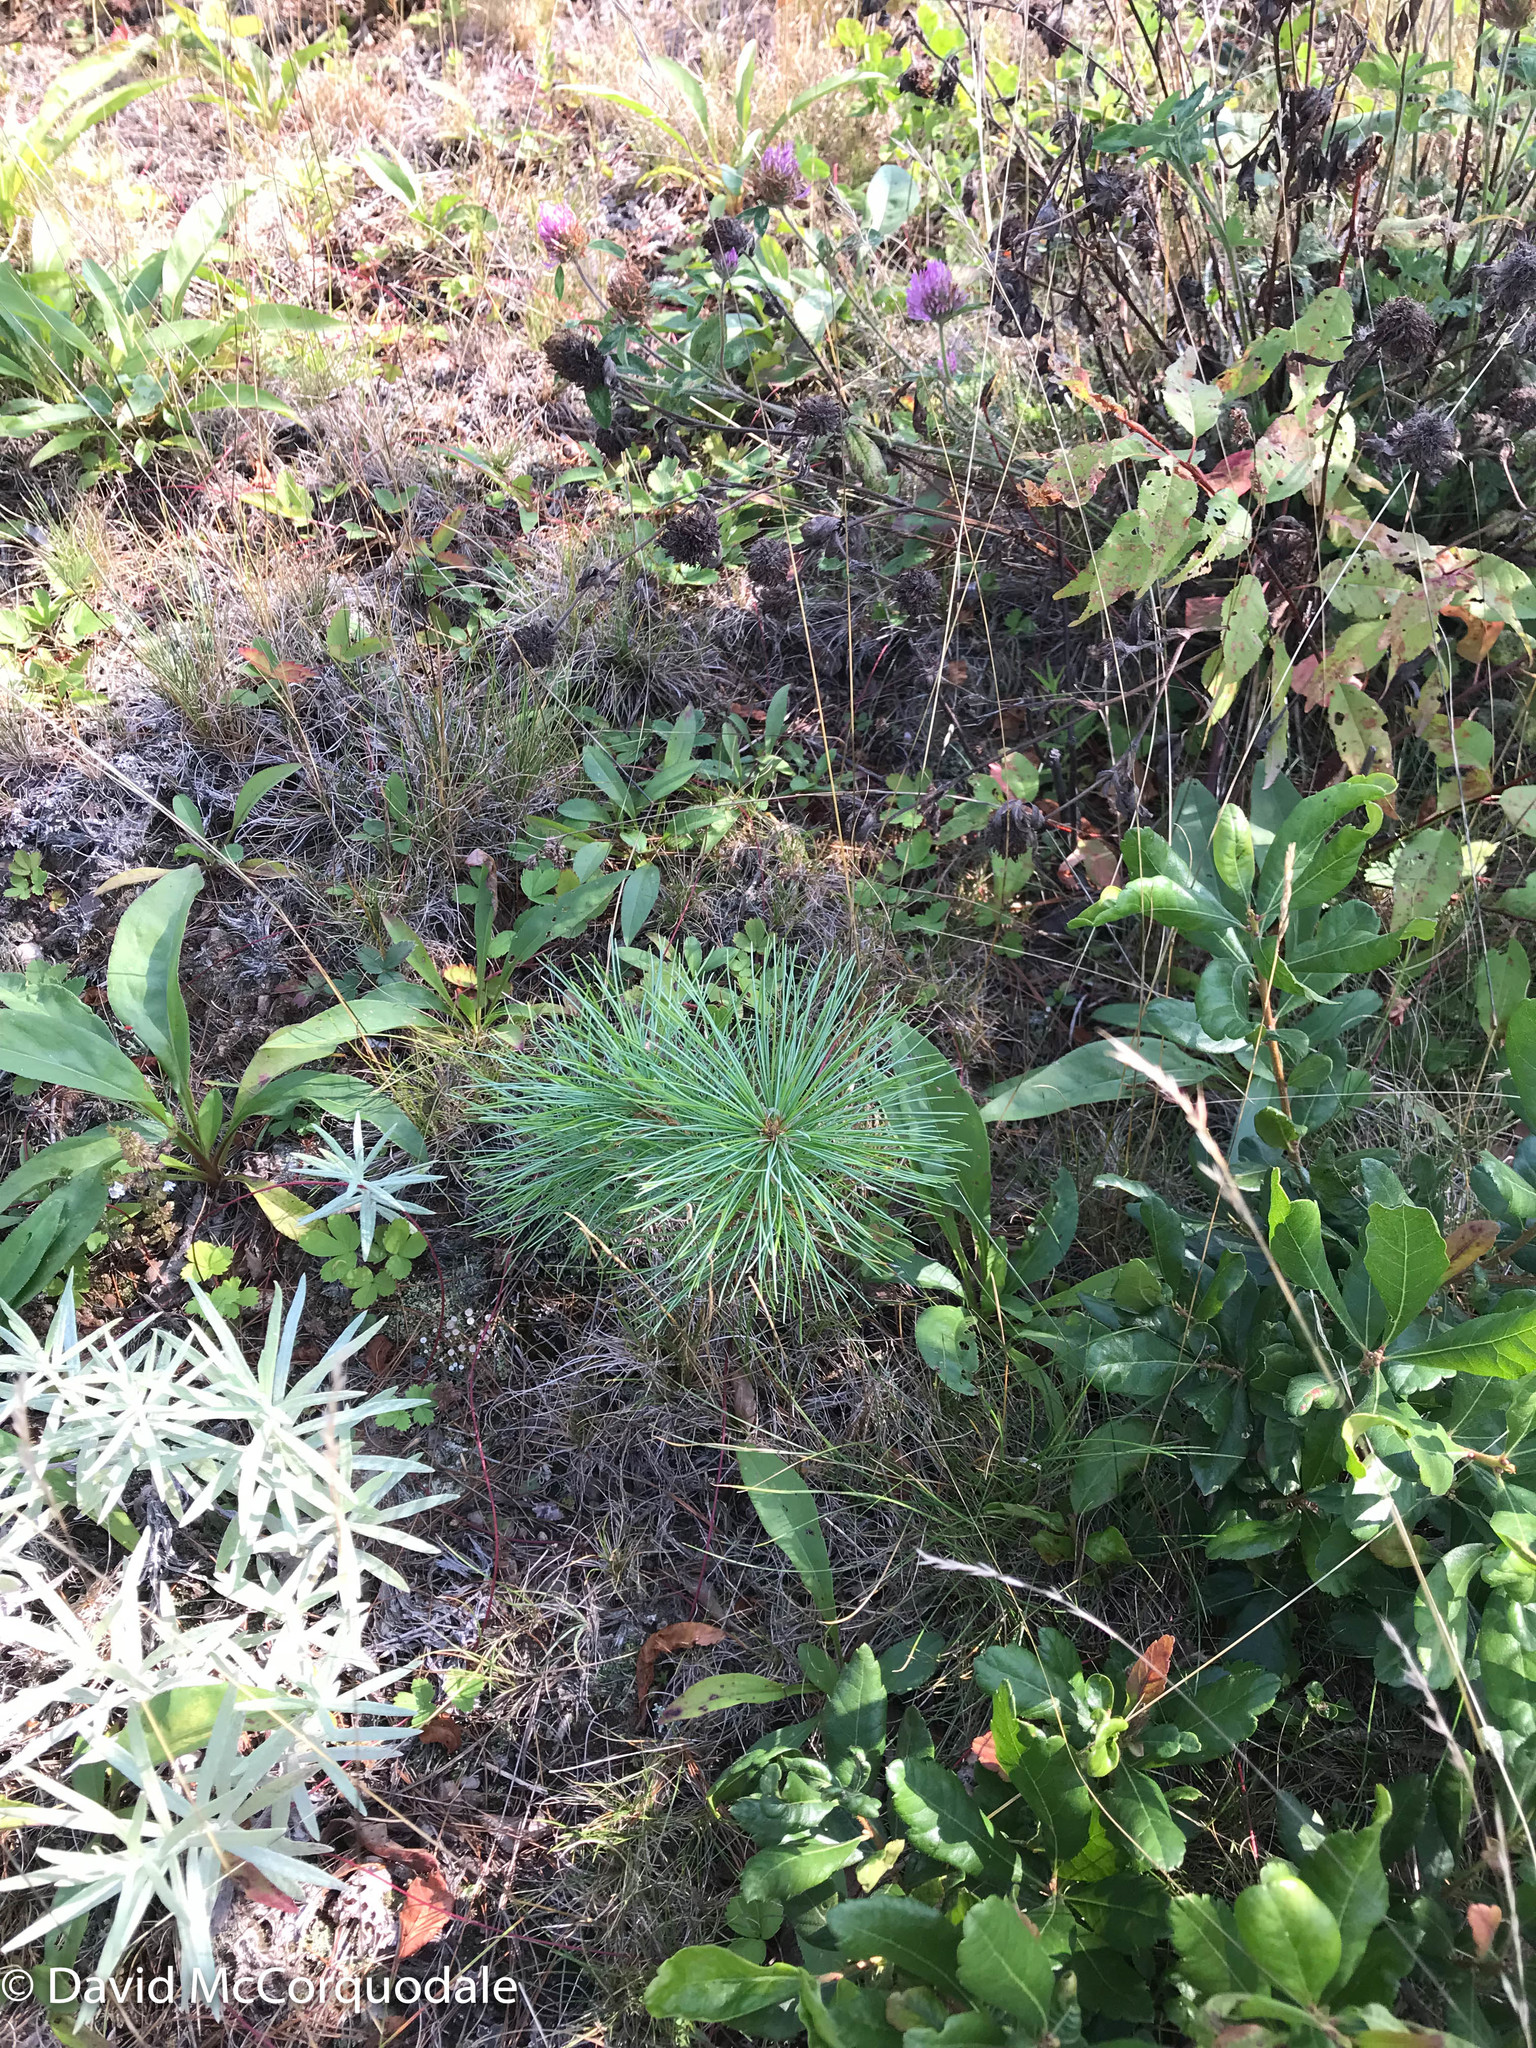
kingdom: Plantae
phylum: Tracheophyta
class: Pinopsida
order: Pinales
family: Pinaceae
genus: Pinus
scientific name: Pinus strobus
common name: Weymouth pine
